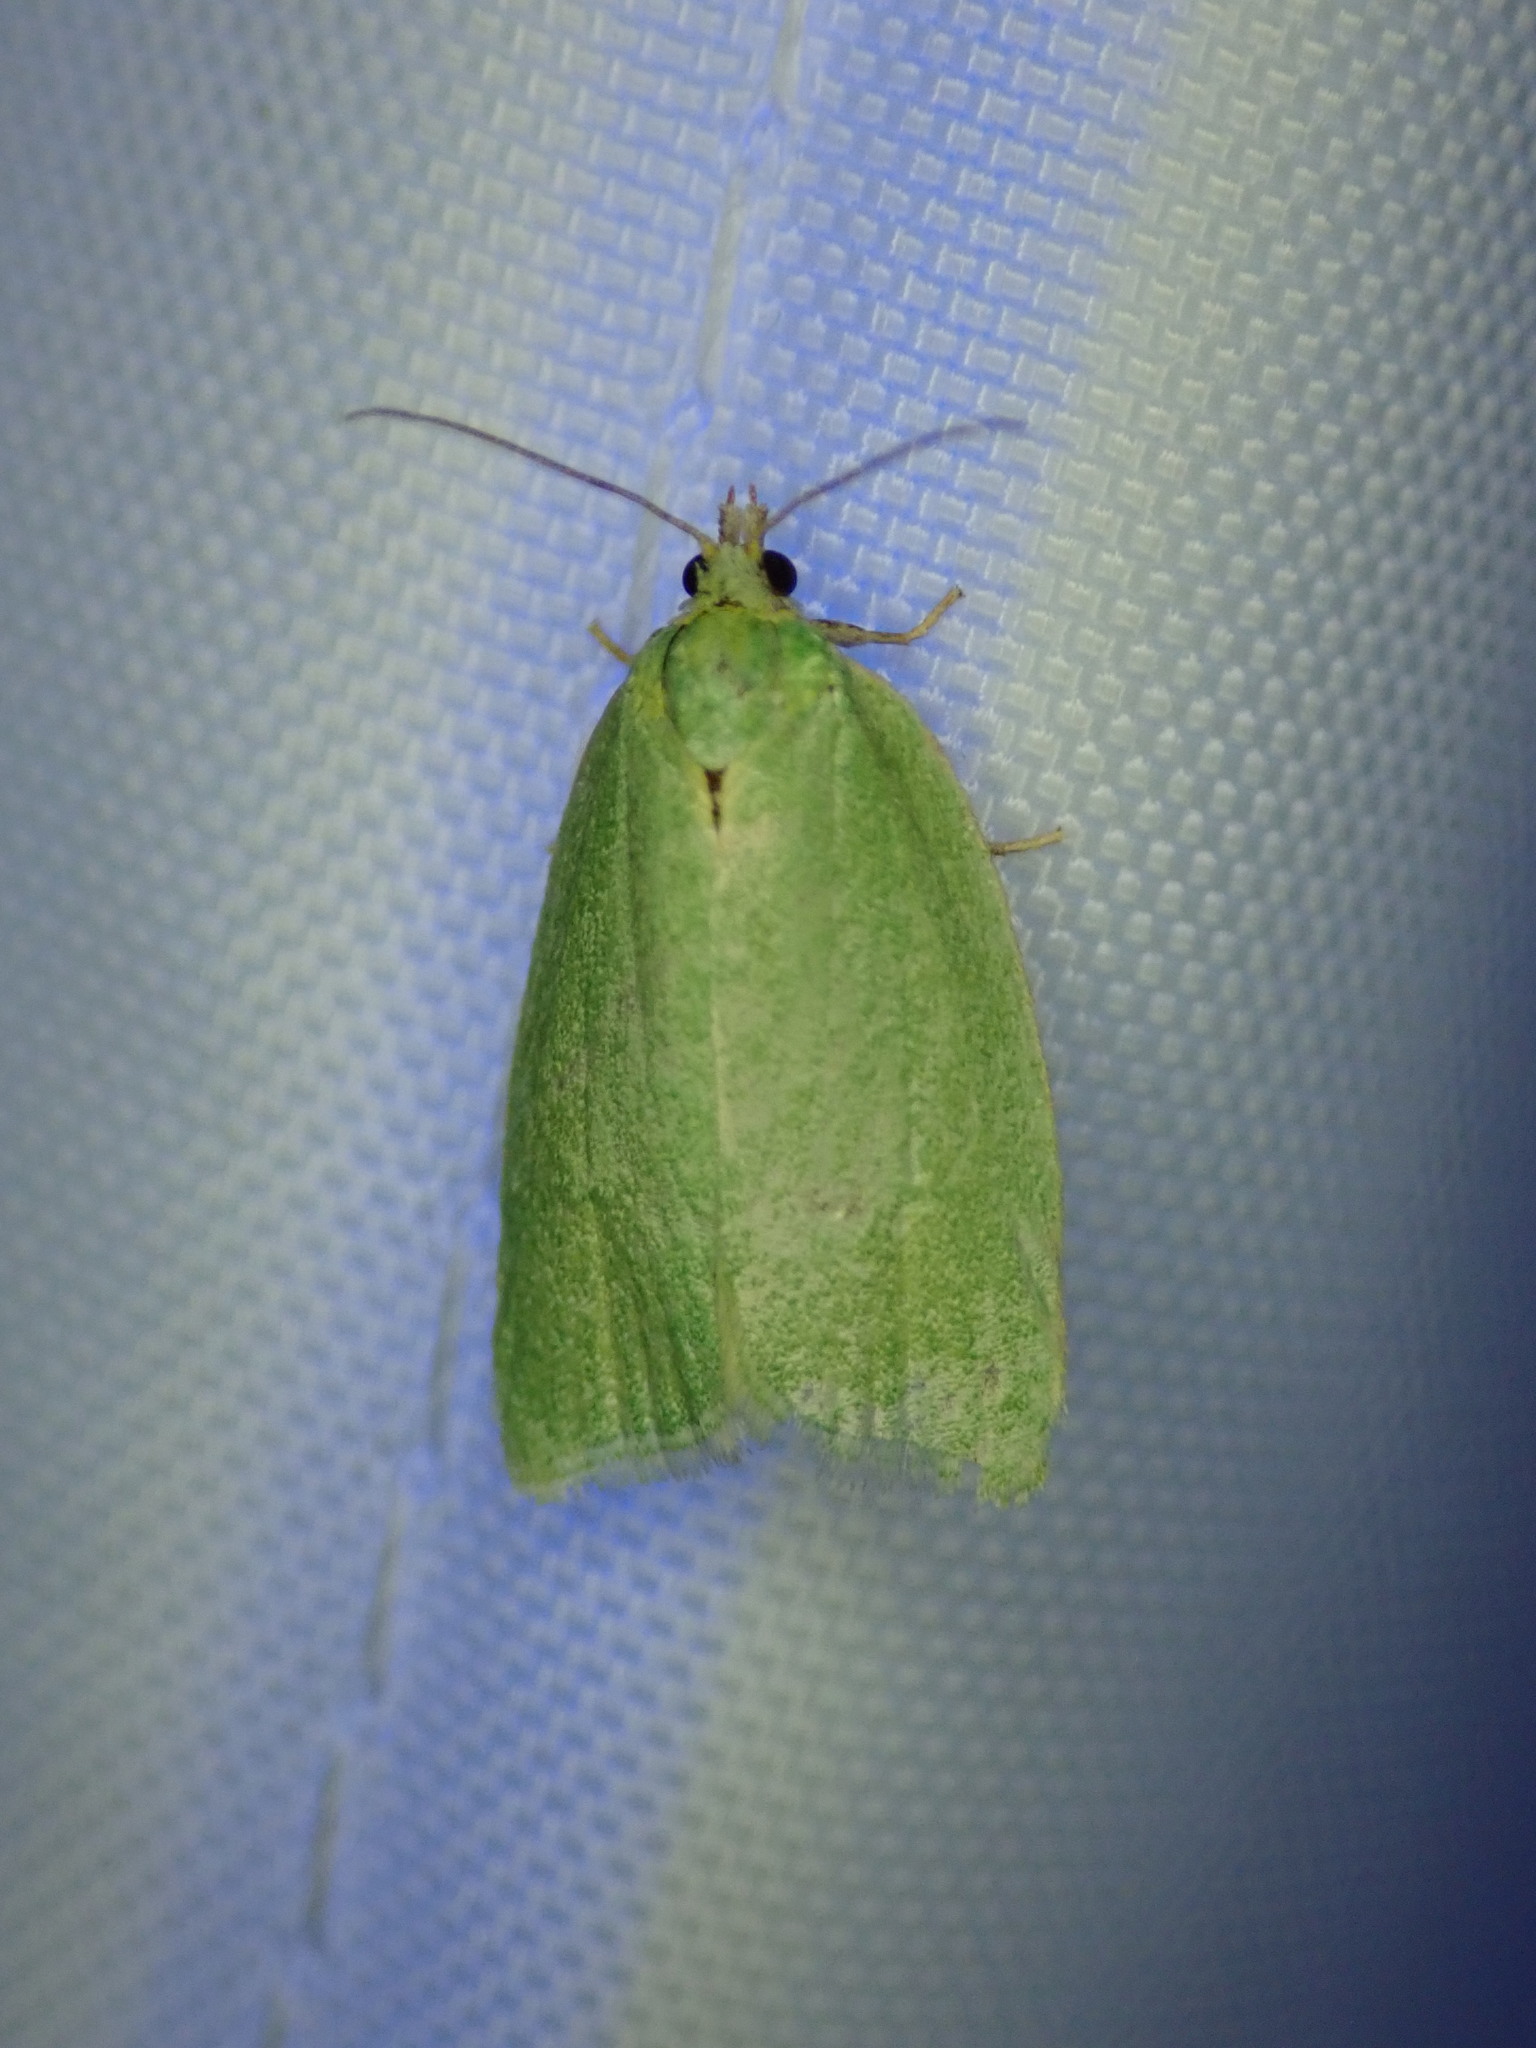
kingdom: Animalia
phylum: Arthropoda
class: Insecta
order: Lepidoptera
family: Tortricidae
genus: Tortrix
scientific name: Tortrix viridana
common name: Green oak tortrix
